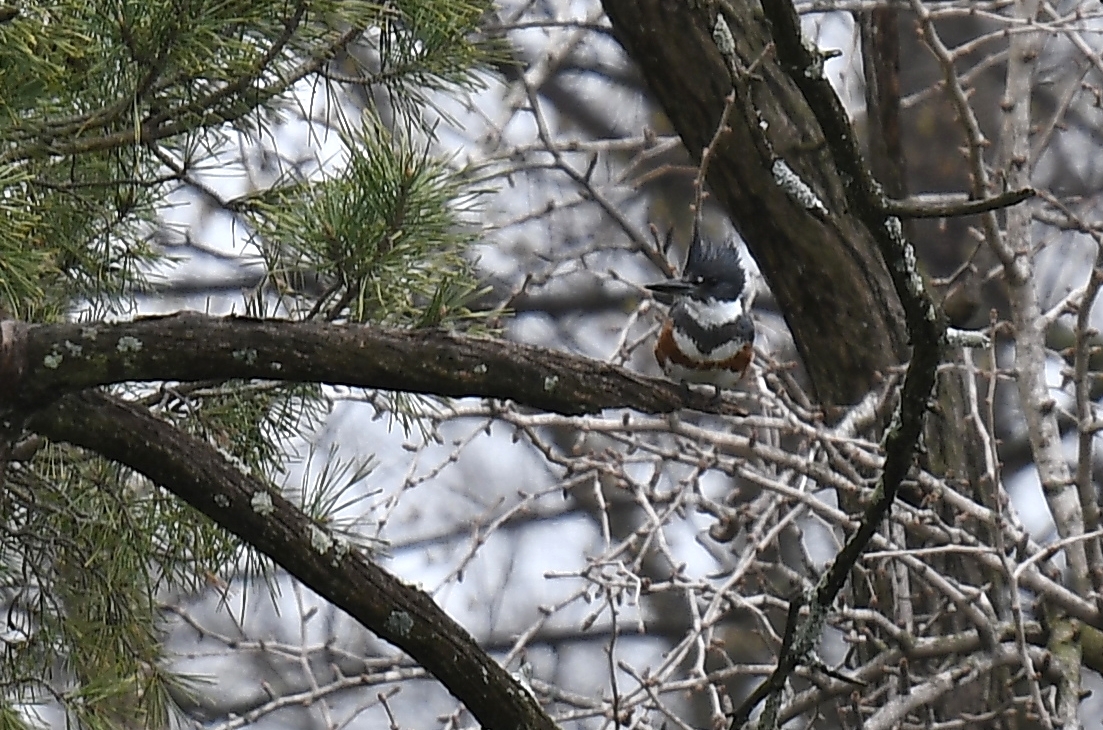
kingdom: Animalia
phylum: Chordata
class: Aves
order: Coraciiformes
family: Alcedinidae
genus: Megaceryle
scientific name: Megaceryle alcyon
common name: Belted kingfisher
